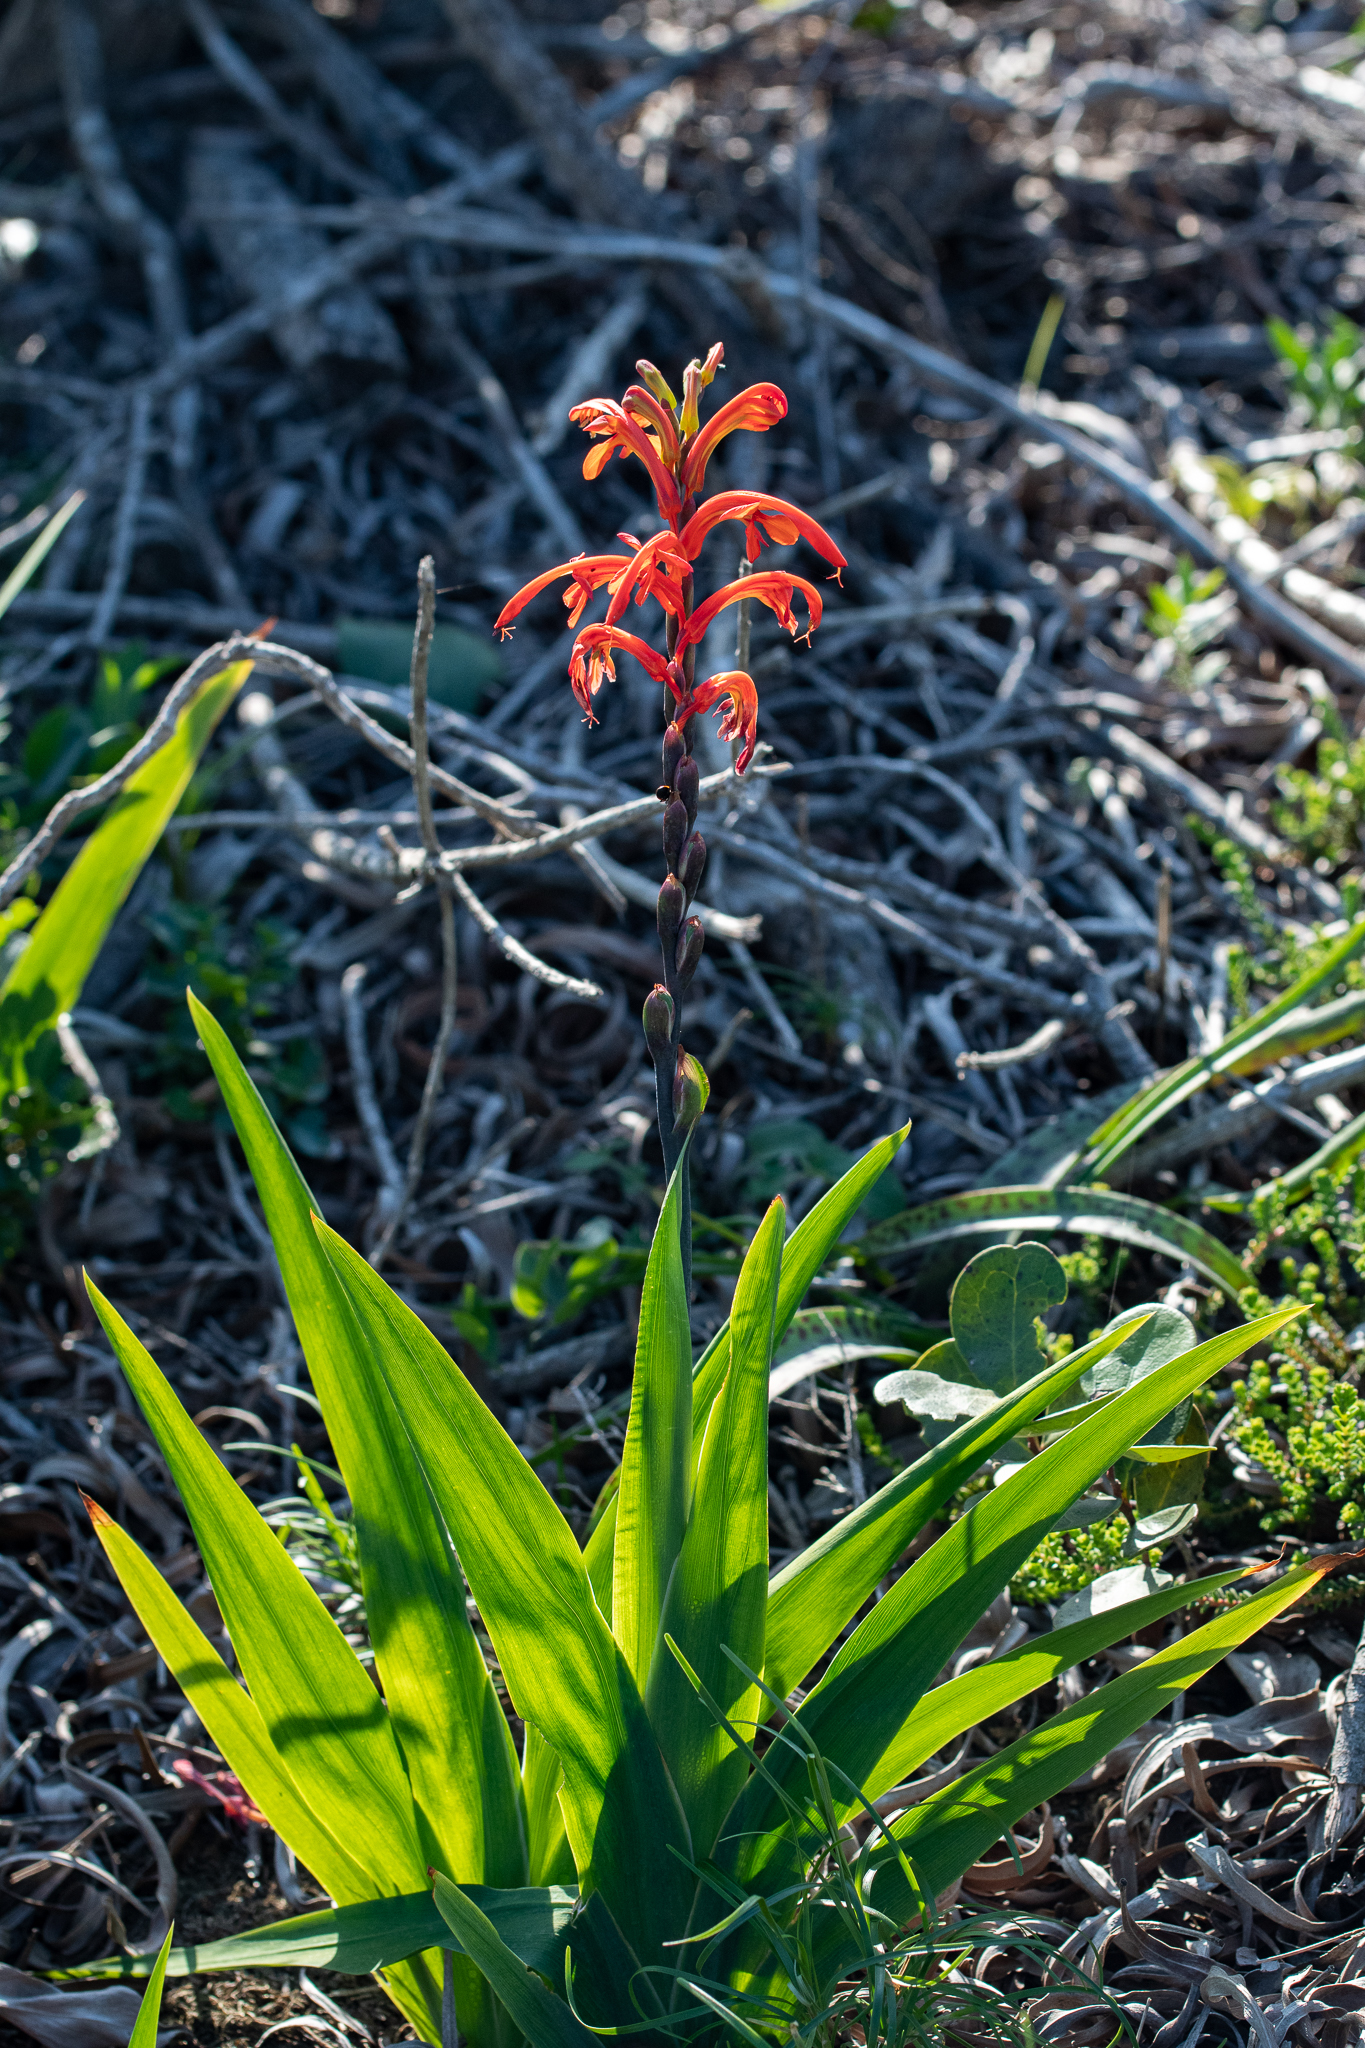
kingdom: Plantae
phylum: Tracheophyta
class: Liliopsida
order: Asparagales
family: Iridaceae
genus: Chasmanthe
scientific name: Chasmanthe aethiopica
